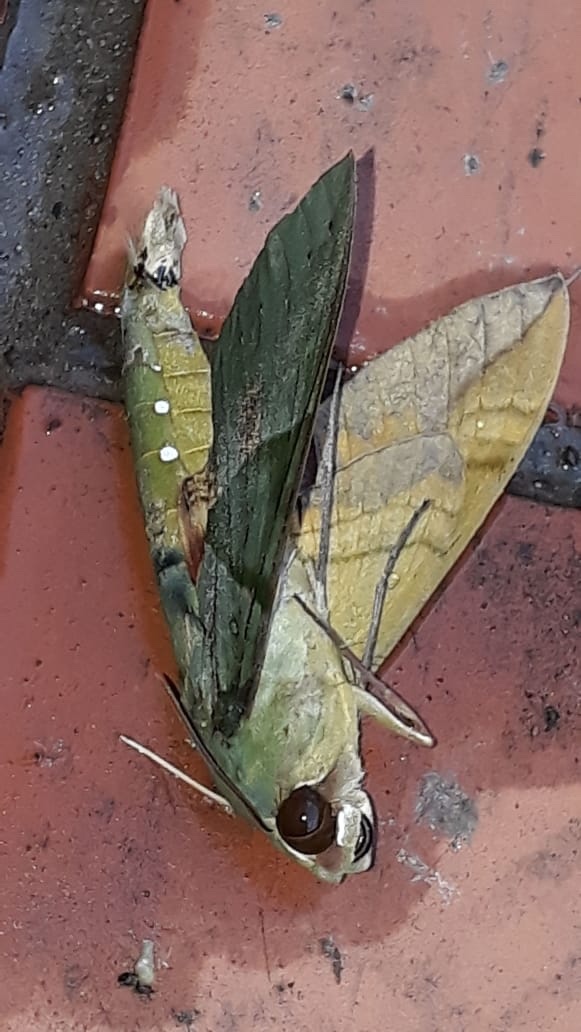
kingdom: Animalia
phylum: Arthropoda
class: Insecta
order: Lepidoptera
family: Sphingidae
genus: Eumorpha
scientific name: Eumorpha labruscae
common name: Gaudy sphinx
